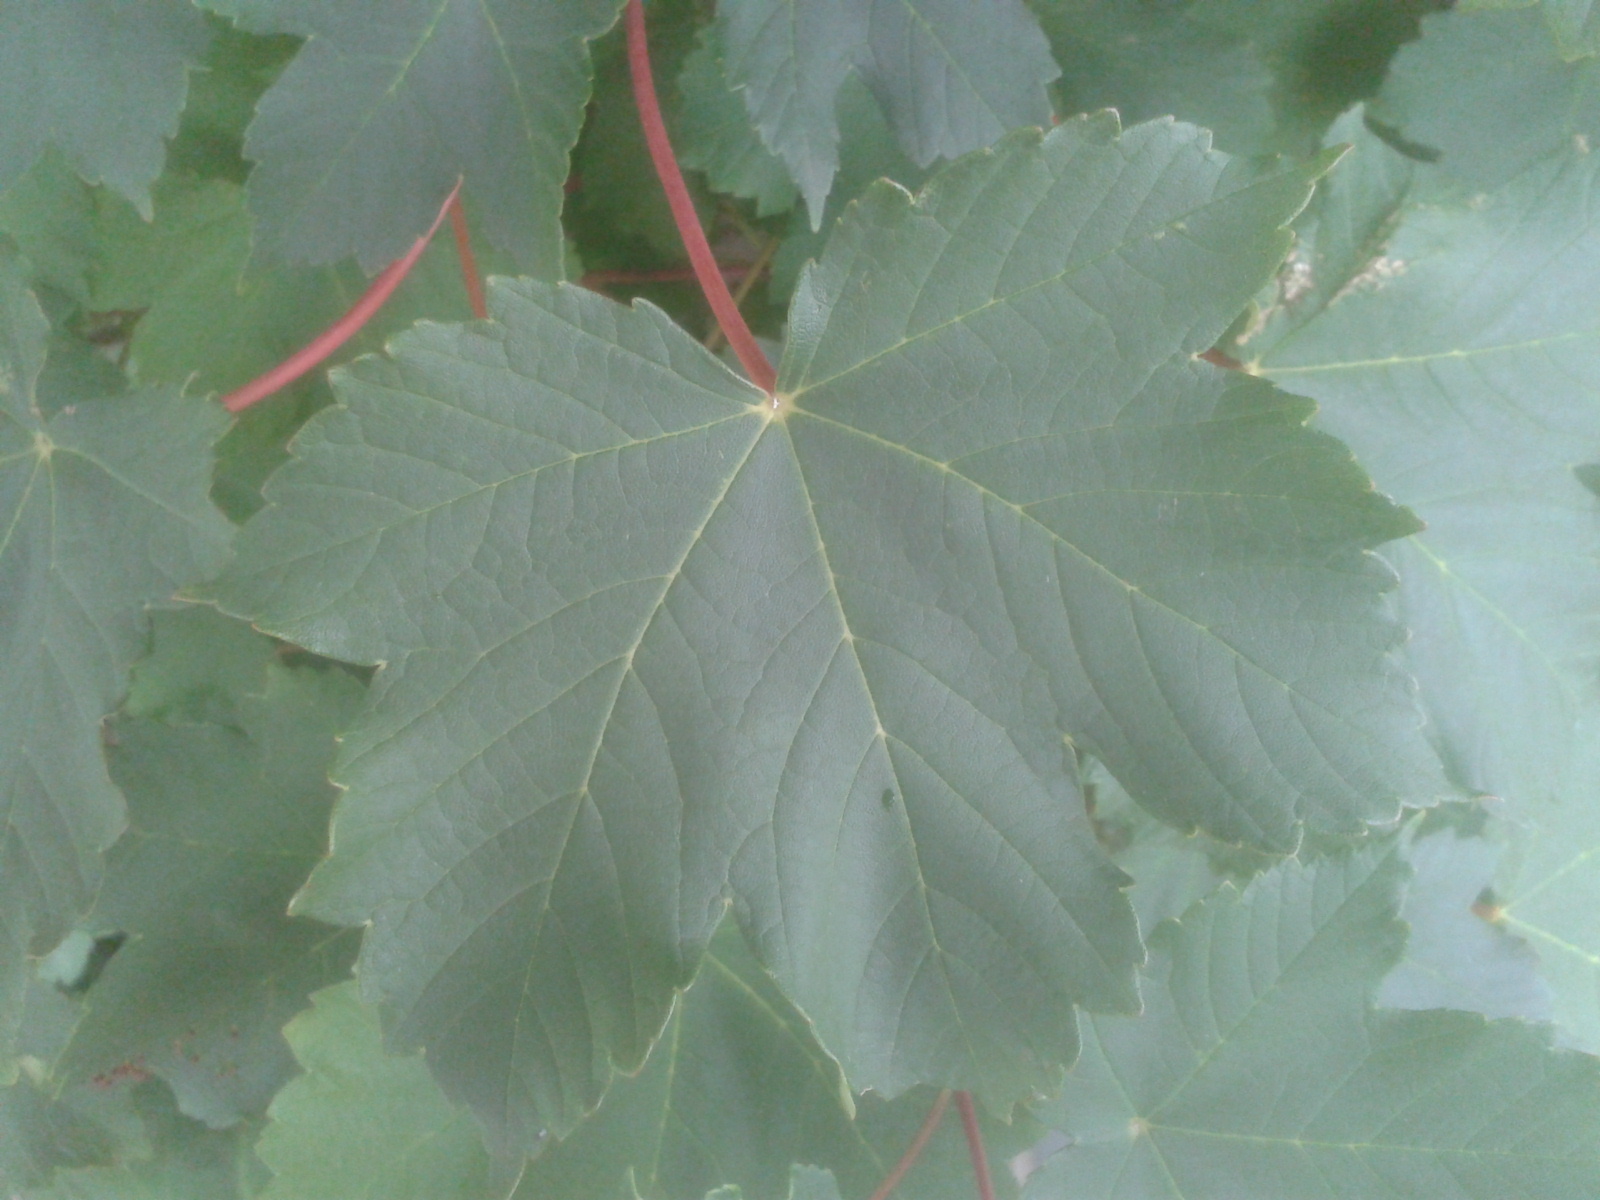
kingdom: Plantae
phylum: Tracheophyta
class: Magnoliopsida
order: Sapindales
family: Sapindaceae
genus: Acer
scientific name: Acer pseudoplatanus
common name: Sycamore
